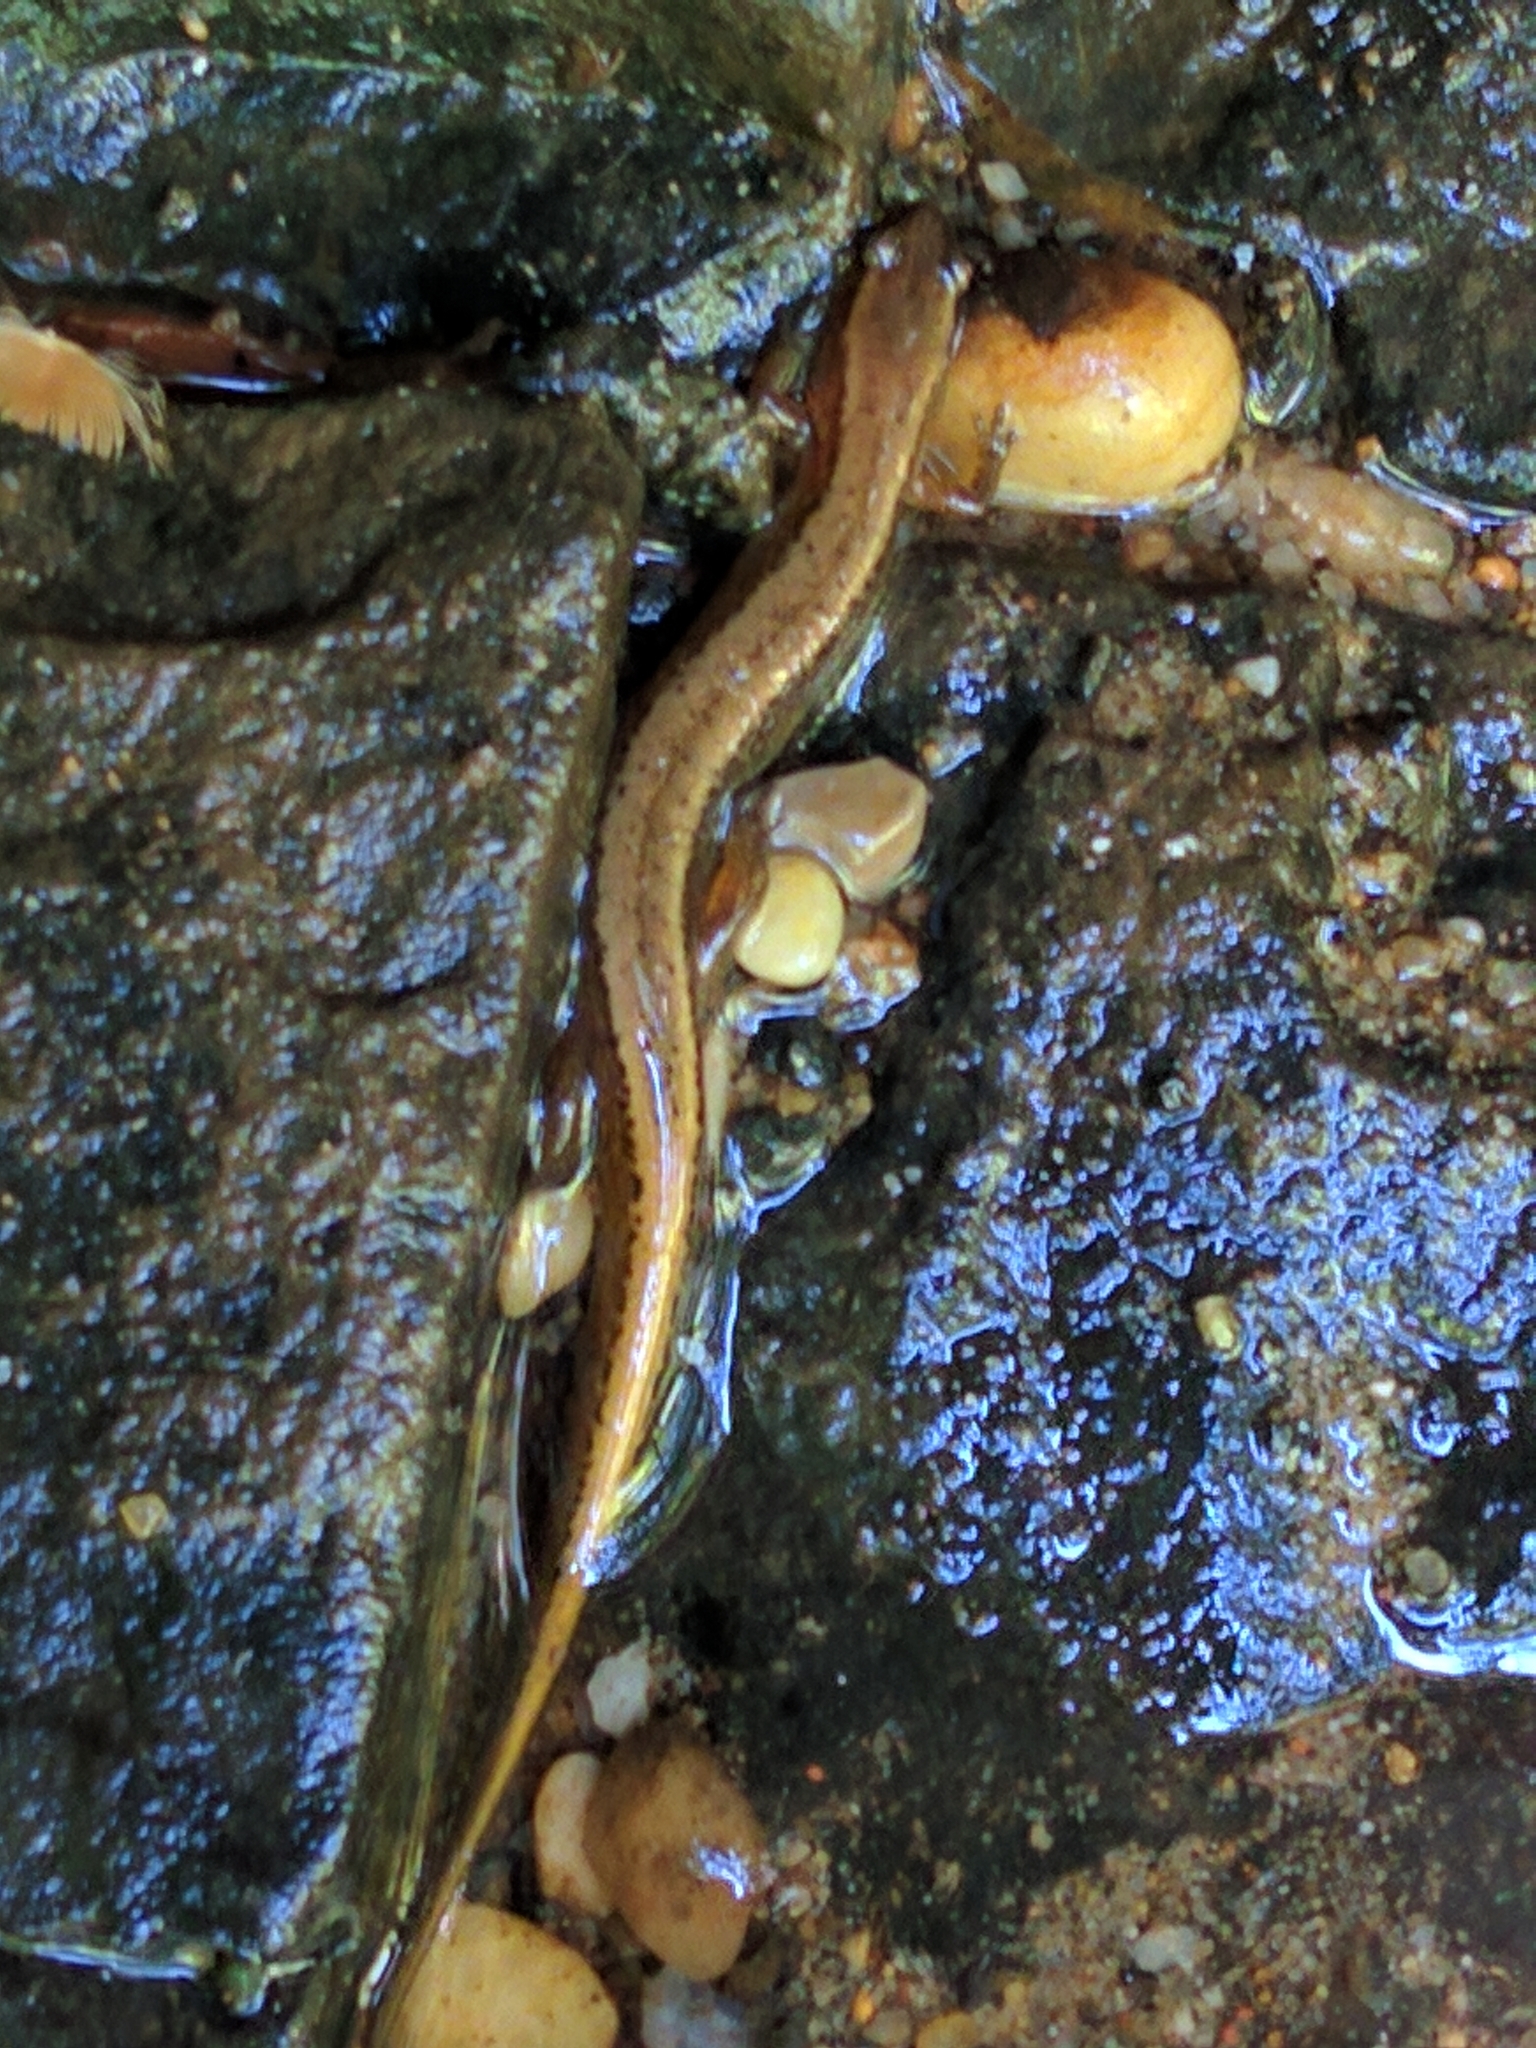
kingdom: Animalia
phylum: Chordata
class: Amphibia
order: Caudata
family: Plethodontidae
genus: Eurycea
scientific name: Eurycea bislineata
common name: Northern two-lined salamander
